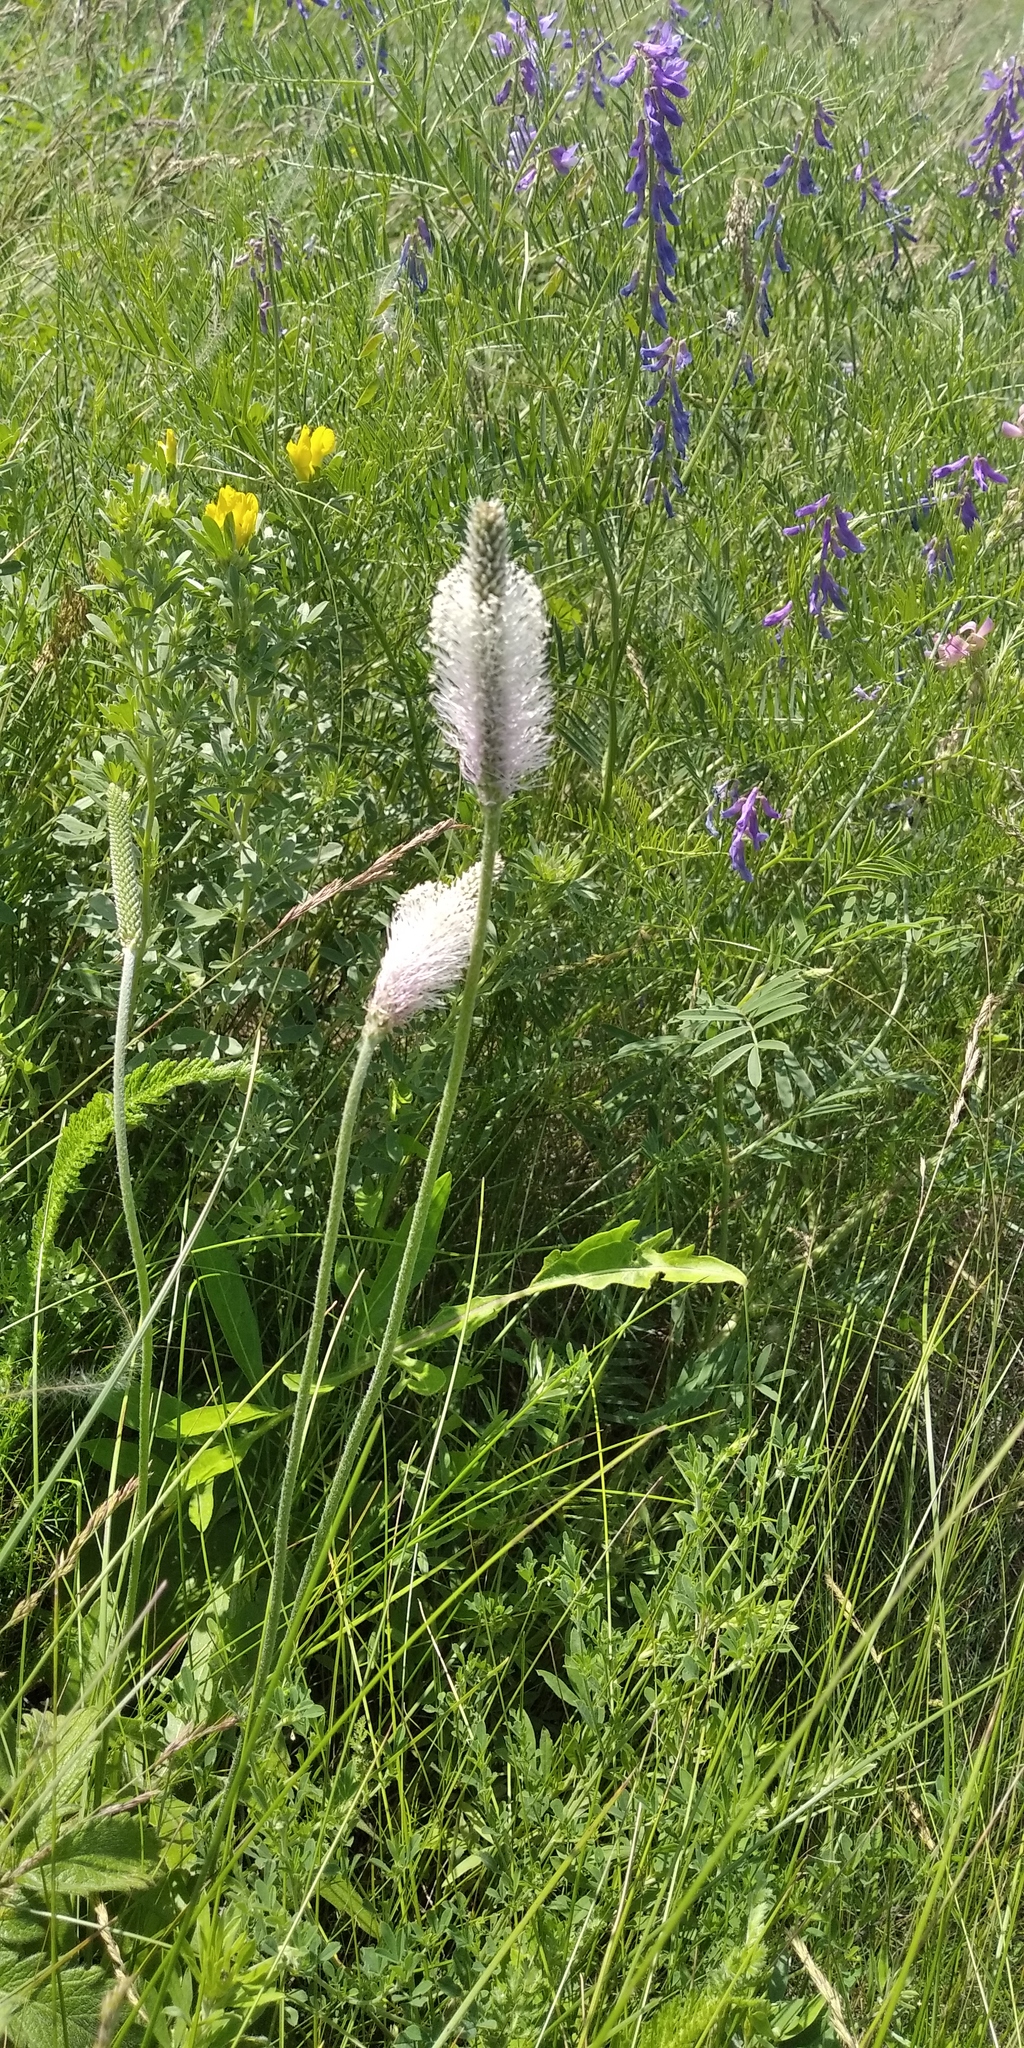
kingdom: Plantae
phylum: Tracheophyta
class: Magnoliopsida
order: Lamiales
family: Plantaginaceae
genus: Plantago
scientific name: Plantago media
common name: Hoary plantain
